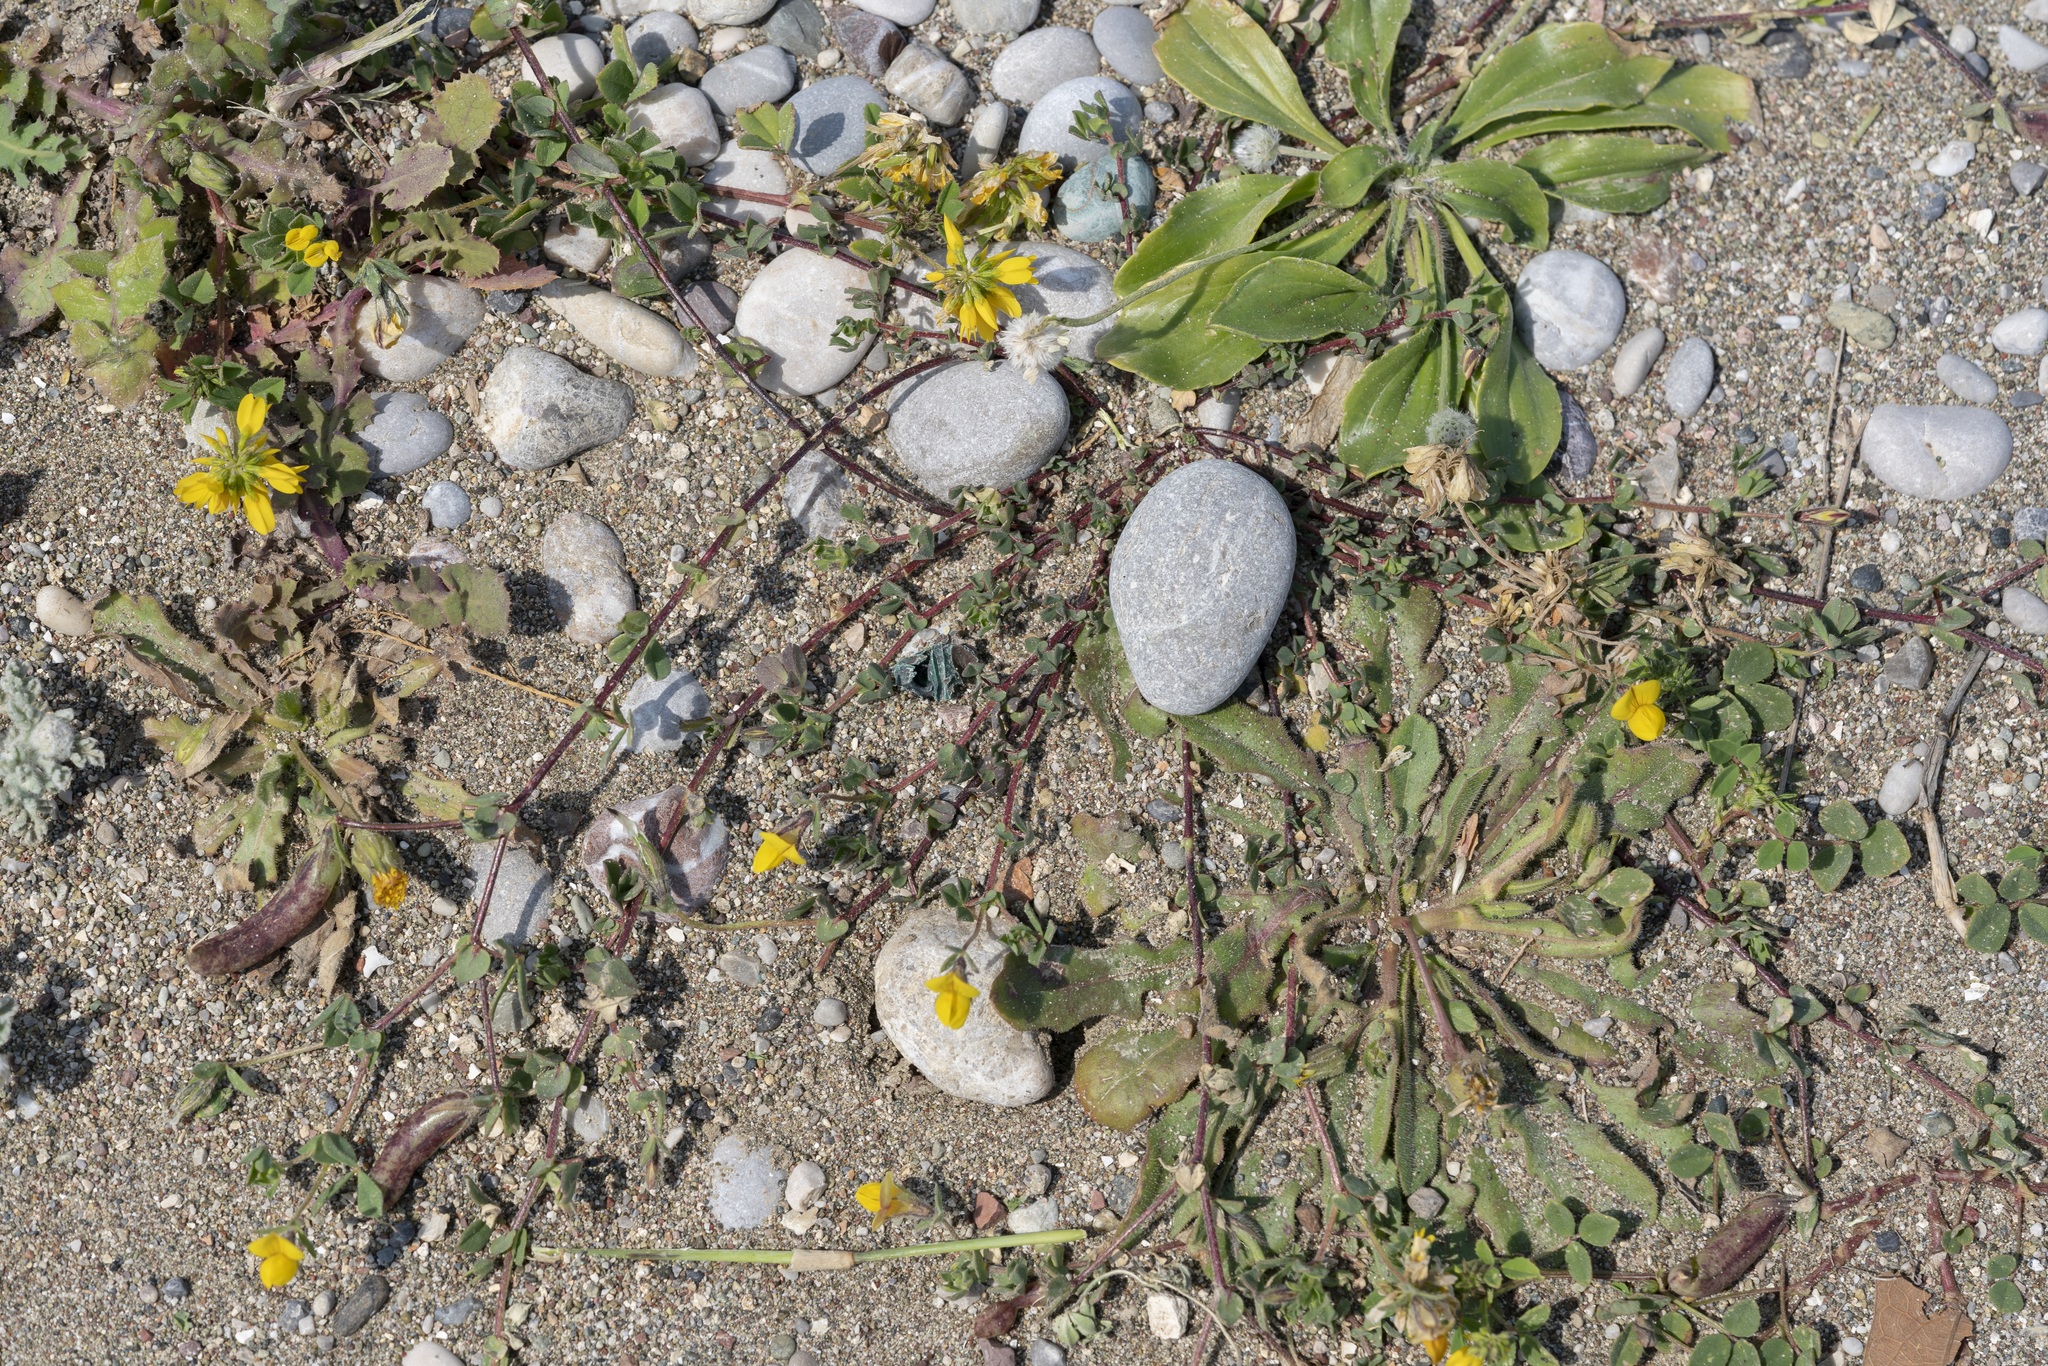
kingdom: Plantae
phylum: Tracheophyta
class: Magnoliopsida
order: Fabales
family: Fabaceae
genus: Lotus
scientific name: Lotus edulis
